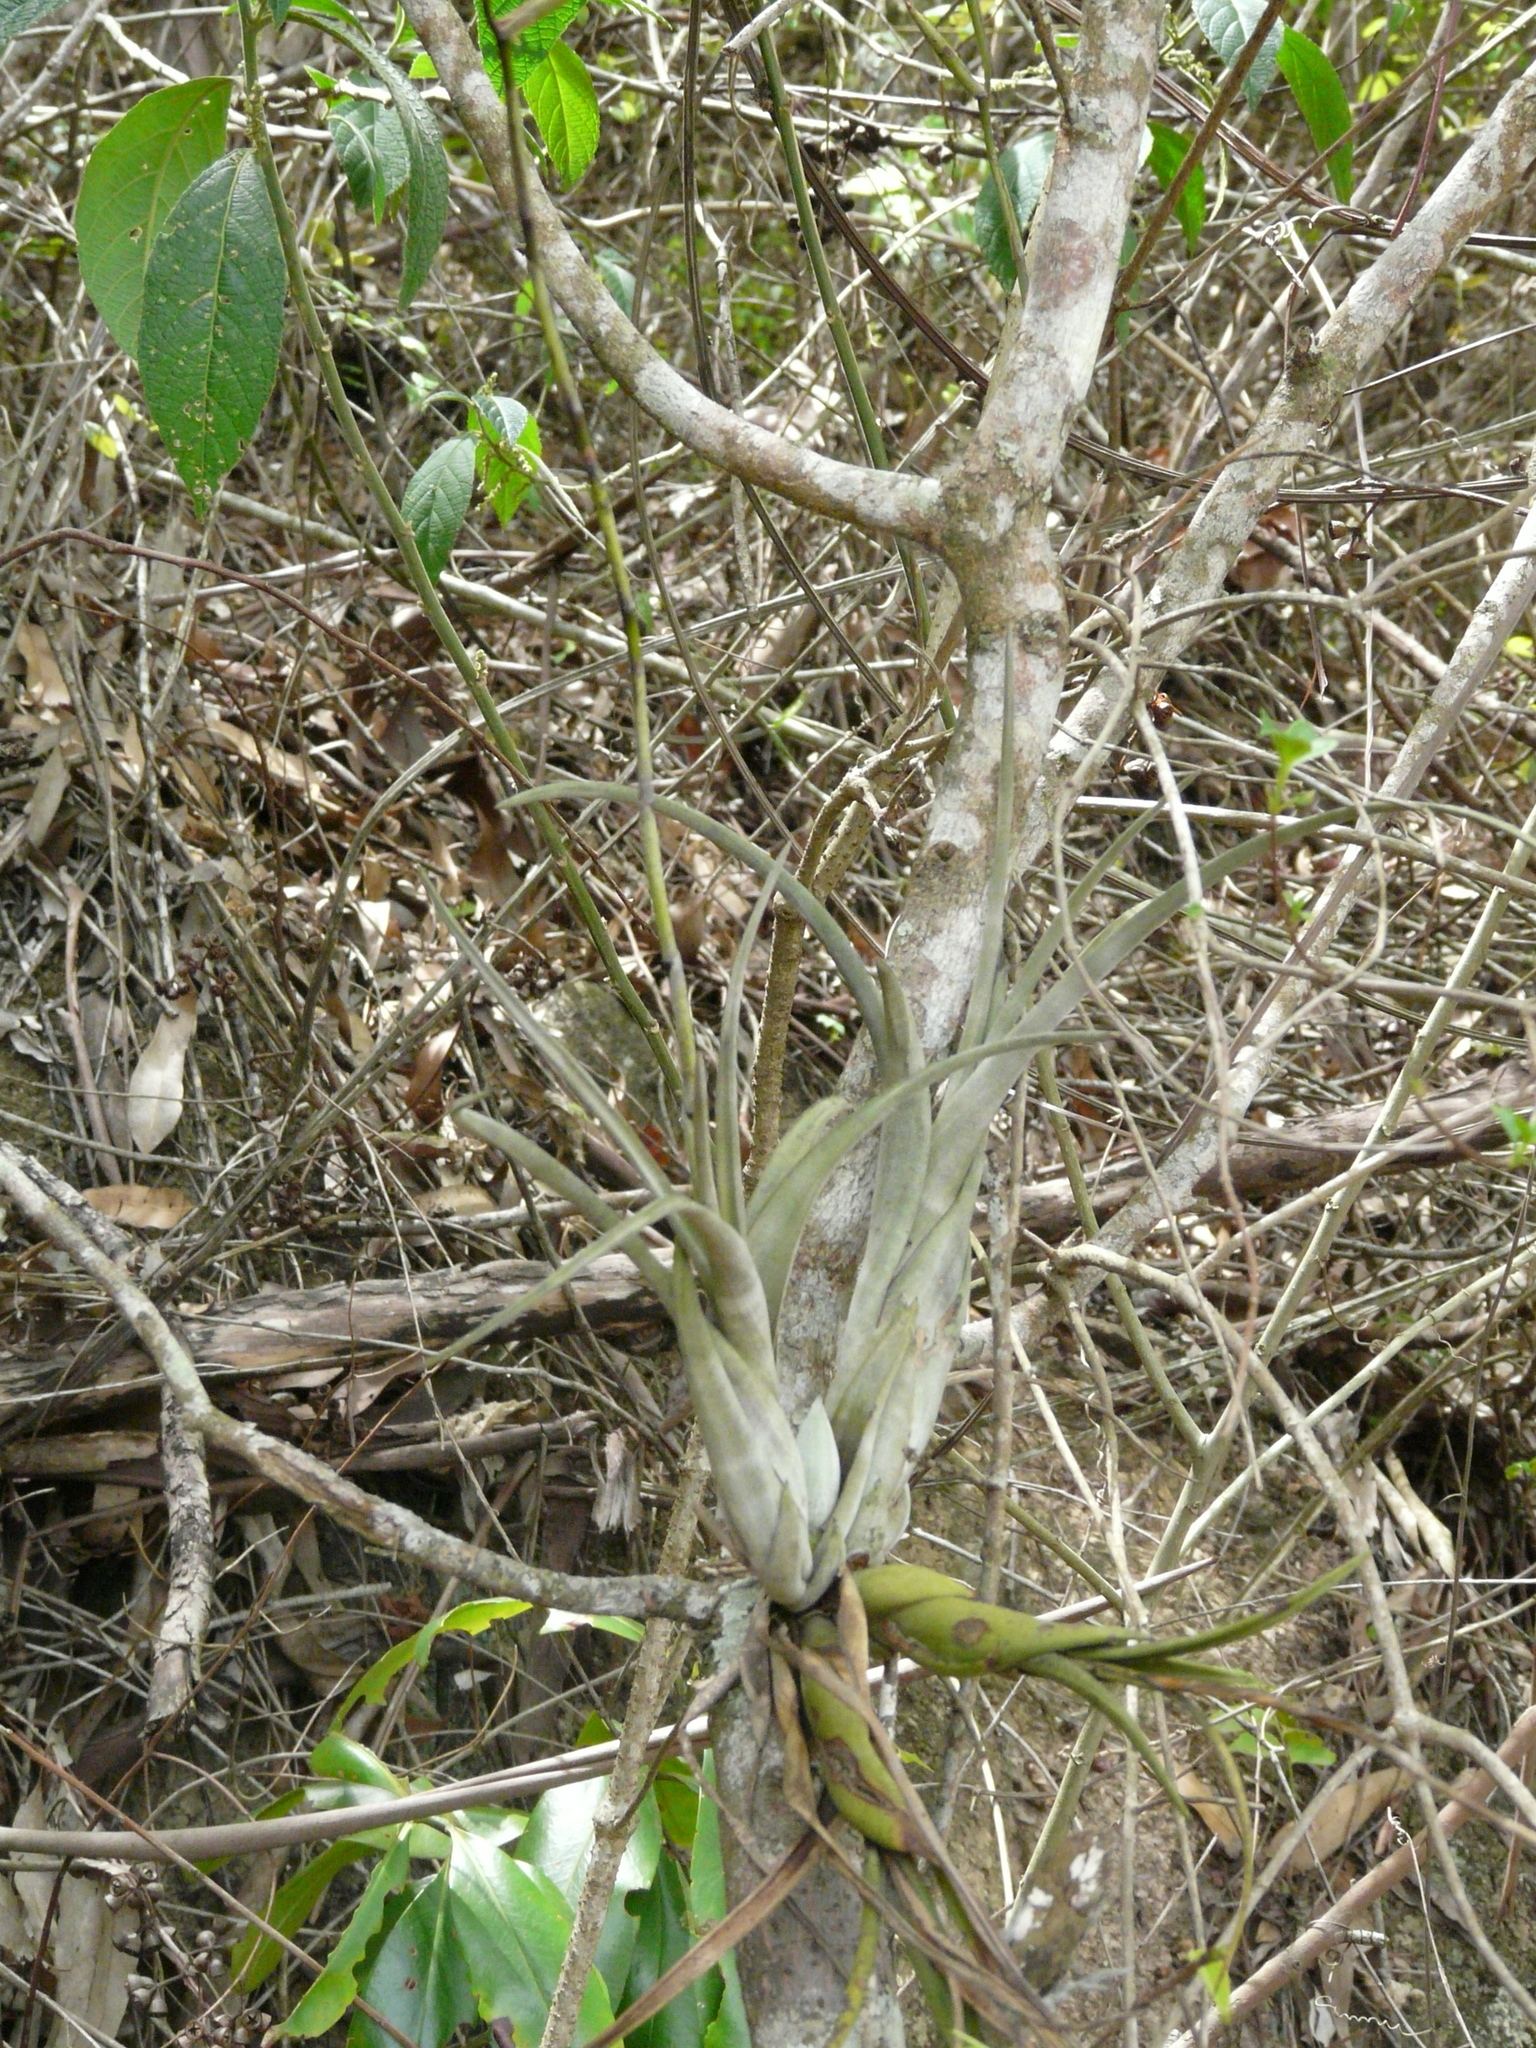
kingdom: Plantae
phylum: Tracheophyta
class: Liliopsida
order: Poales
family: Bromeliaceae
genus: Tillandsia
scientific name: Tillandsia flexuosa
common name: Banded airplant
